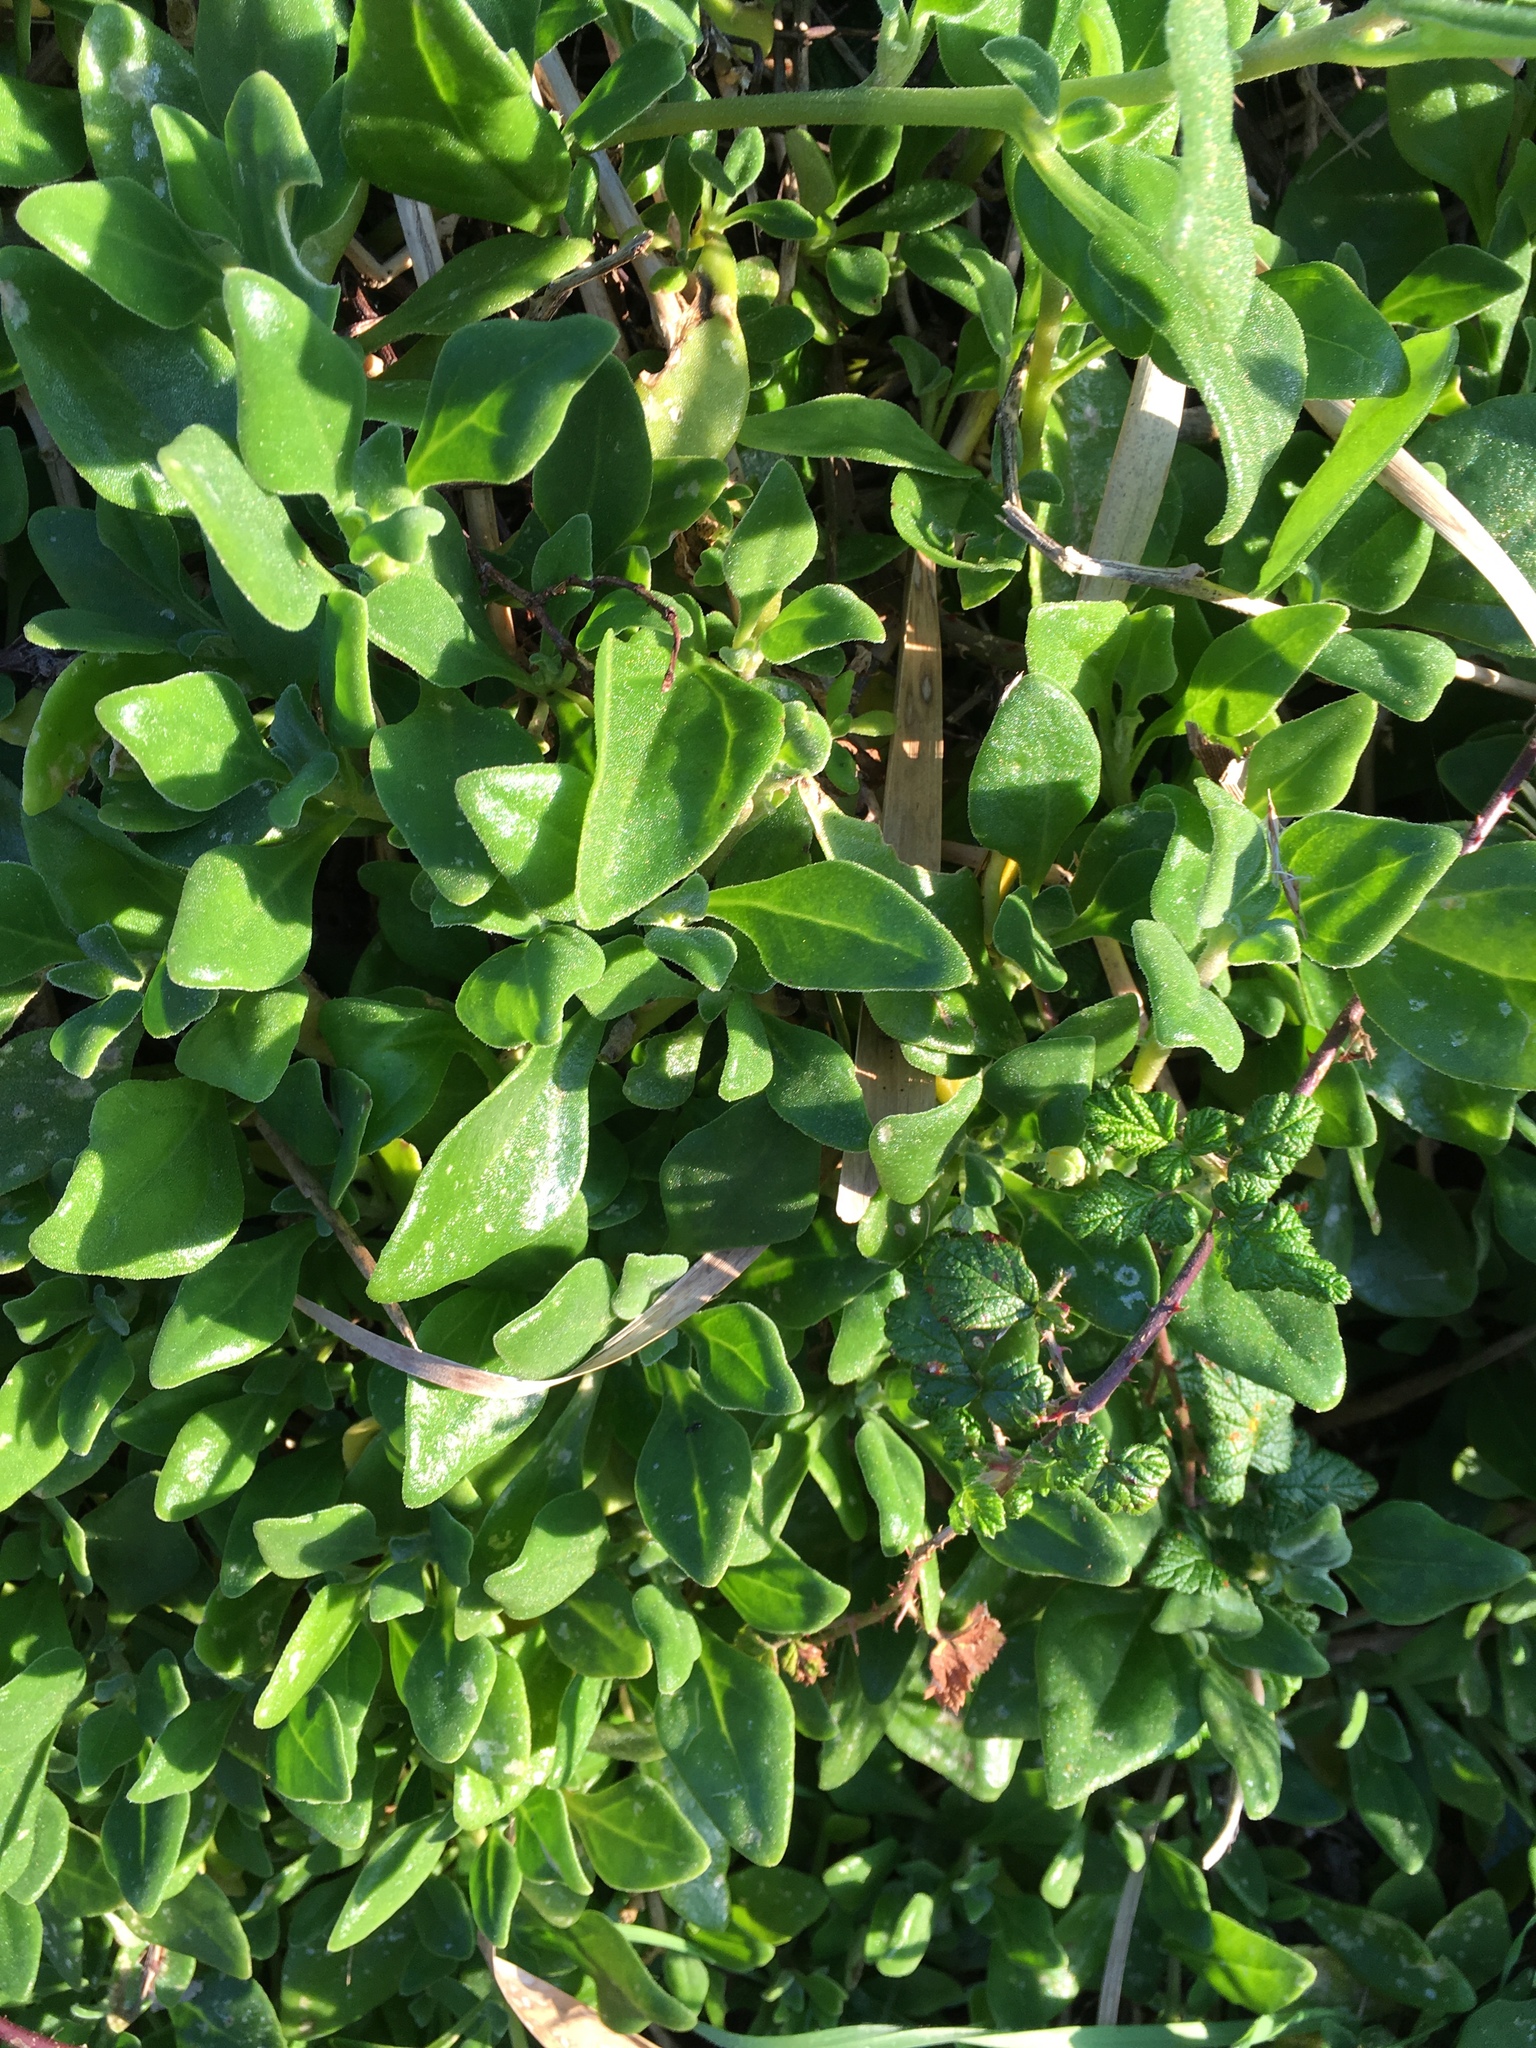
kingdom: Plantae
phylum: Tracheophyta
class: Magnoliopsida
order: Caryophyllales
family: Aizoaceae
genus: Tetragonia
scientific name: Tetragonia implexicoma
